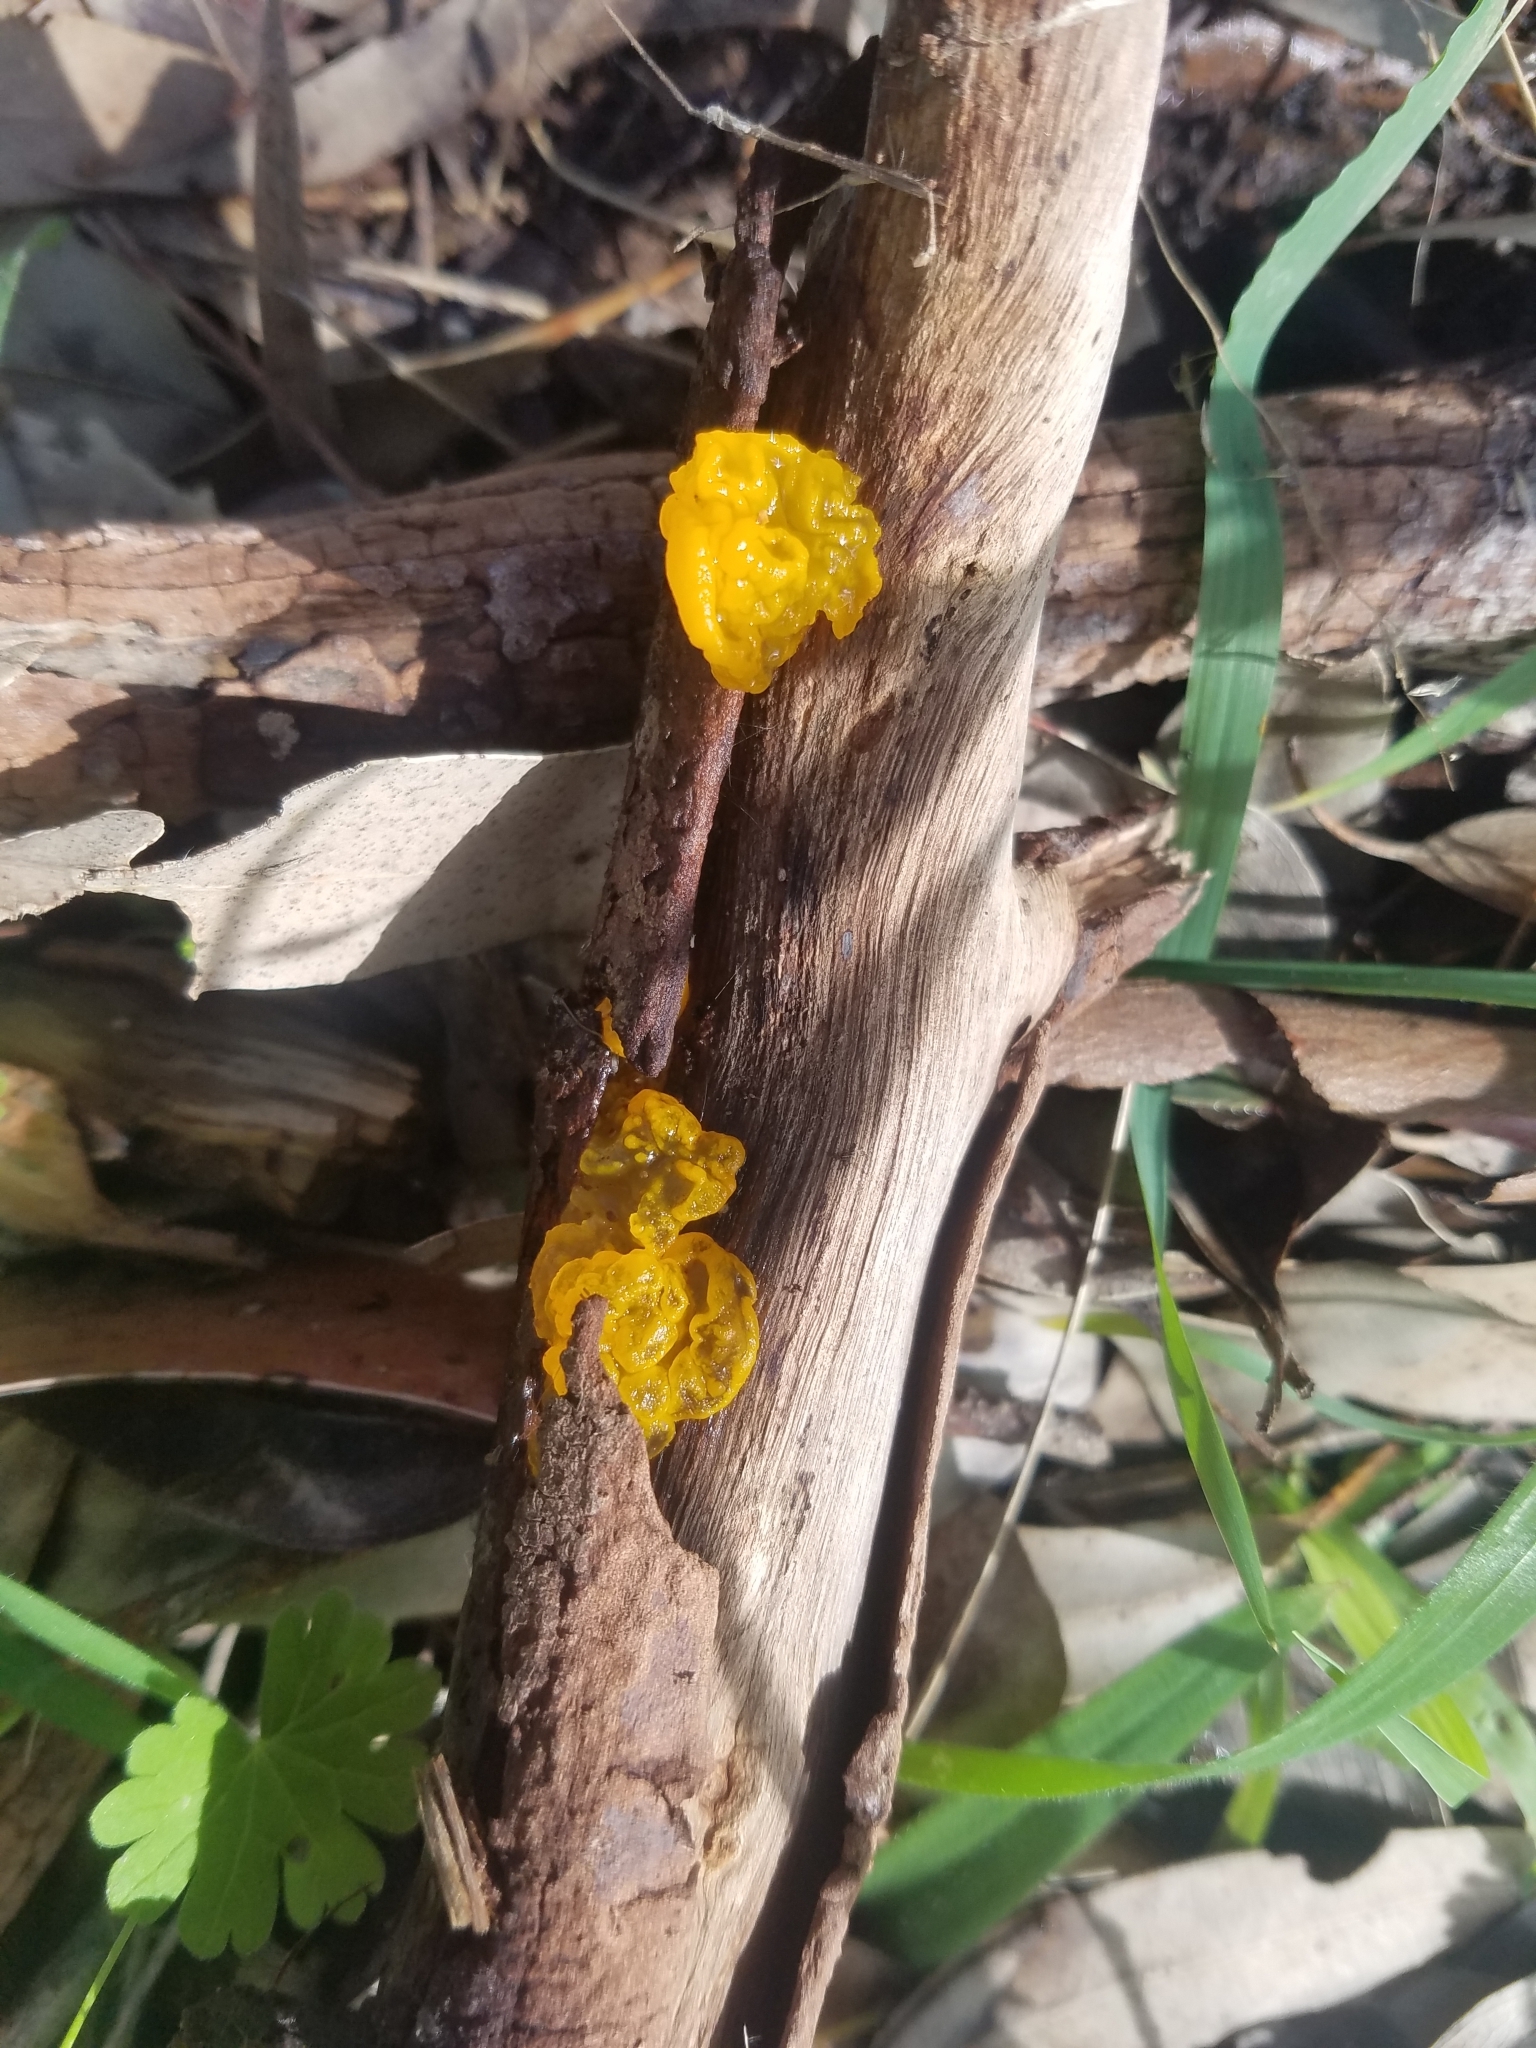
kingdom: Fungi
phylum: Basidiomycota
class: Tremellomycetes
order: Tremellales
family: Tremellaceae
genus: Tremella
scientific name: Tremella mesenterica
